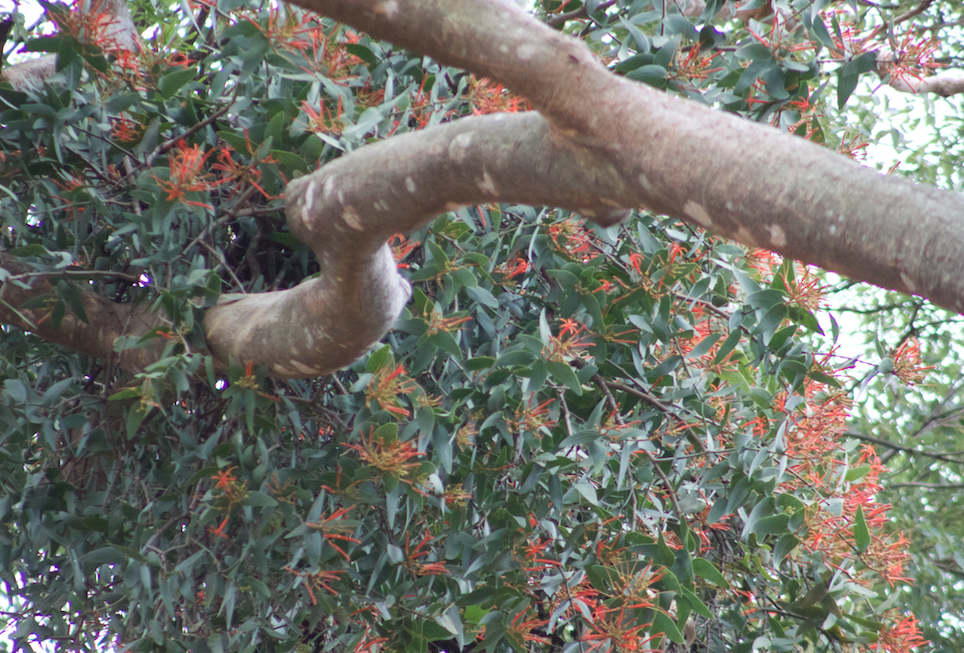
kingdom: Plantae
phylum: Tracheophyta
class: Magnoliopsida
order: Santalales
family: Loranthaceae
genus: Psittacanthus
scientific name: Psittacanthus cordatus
